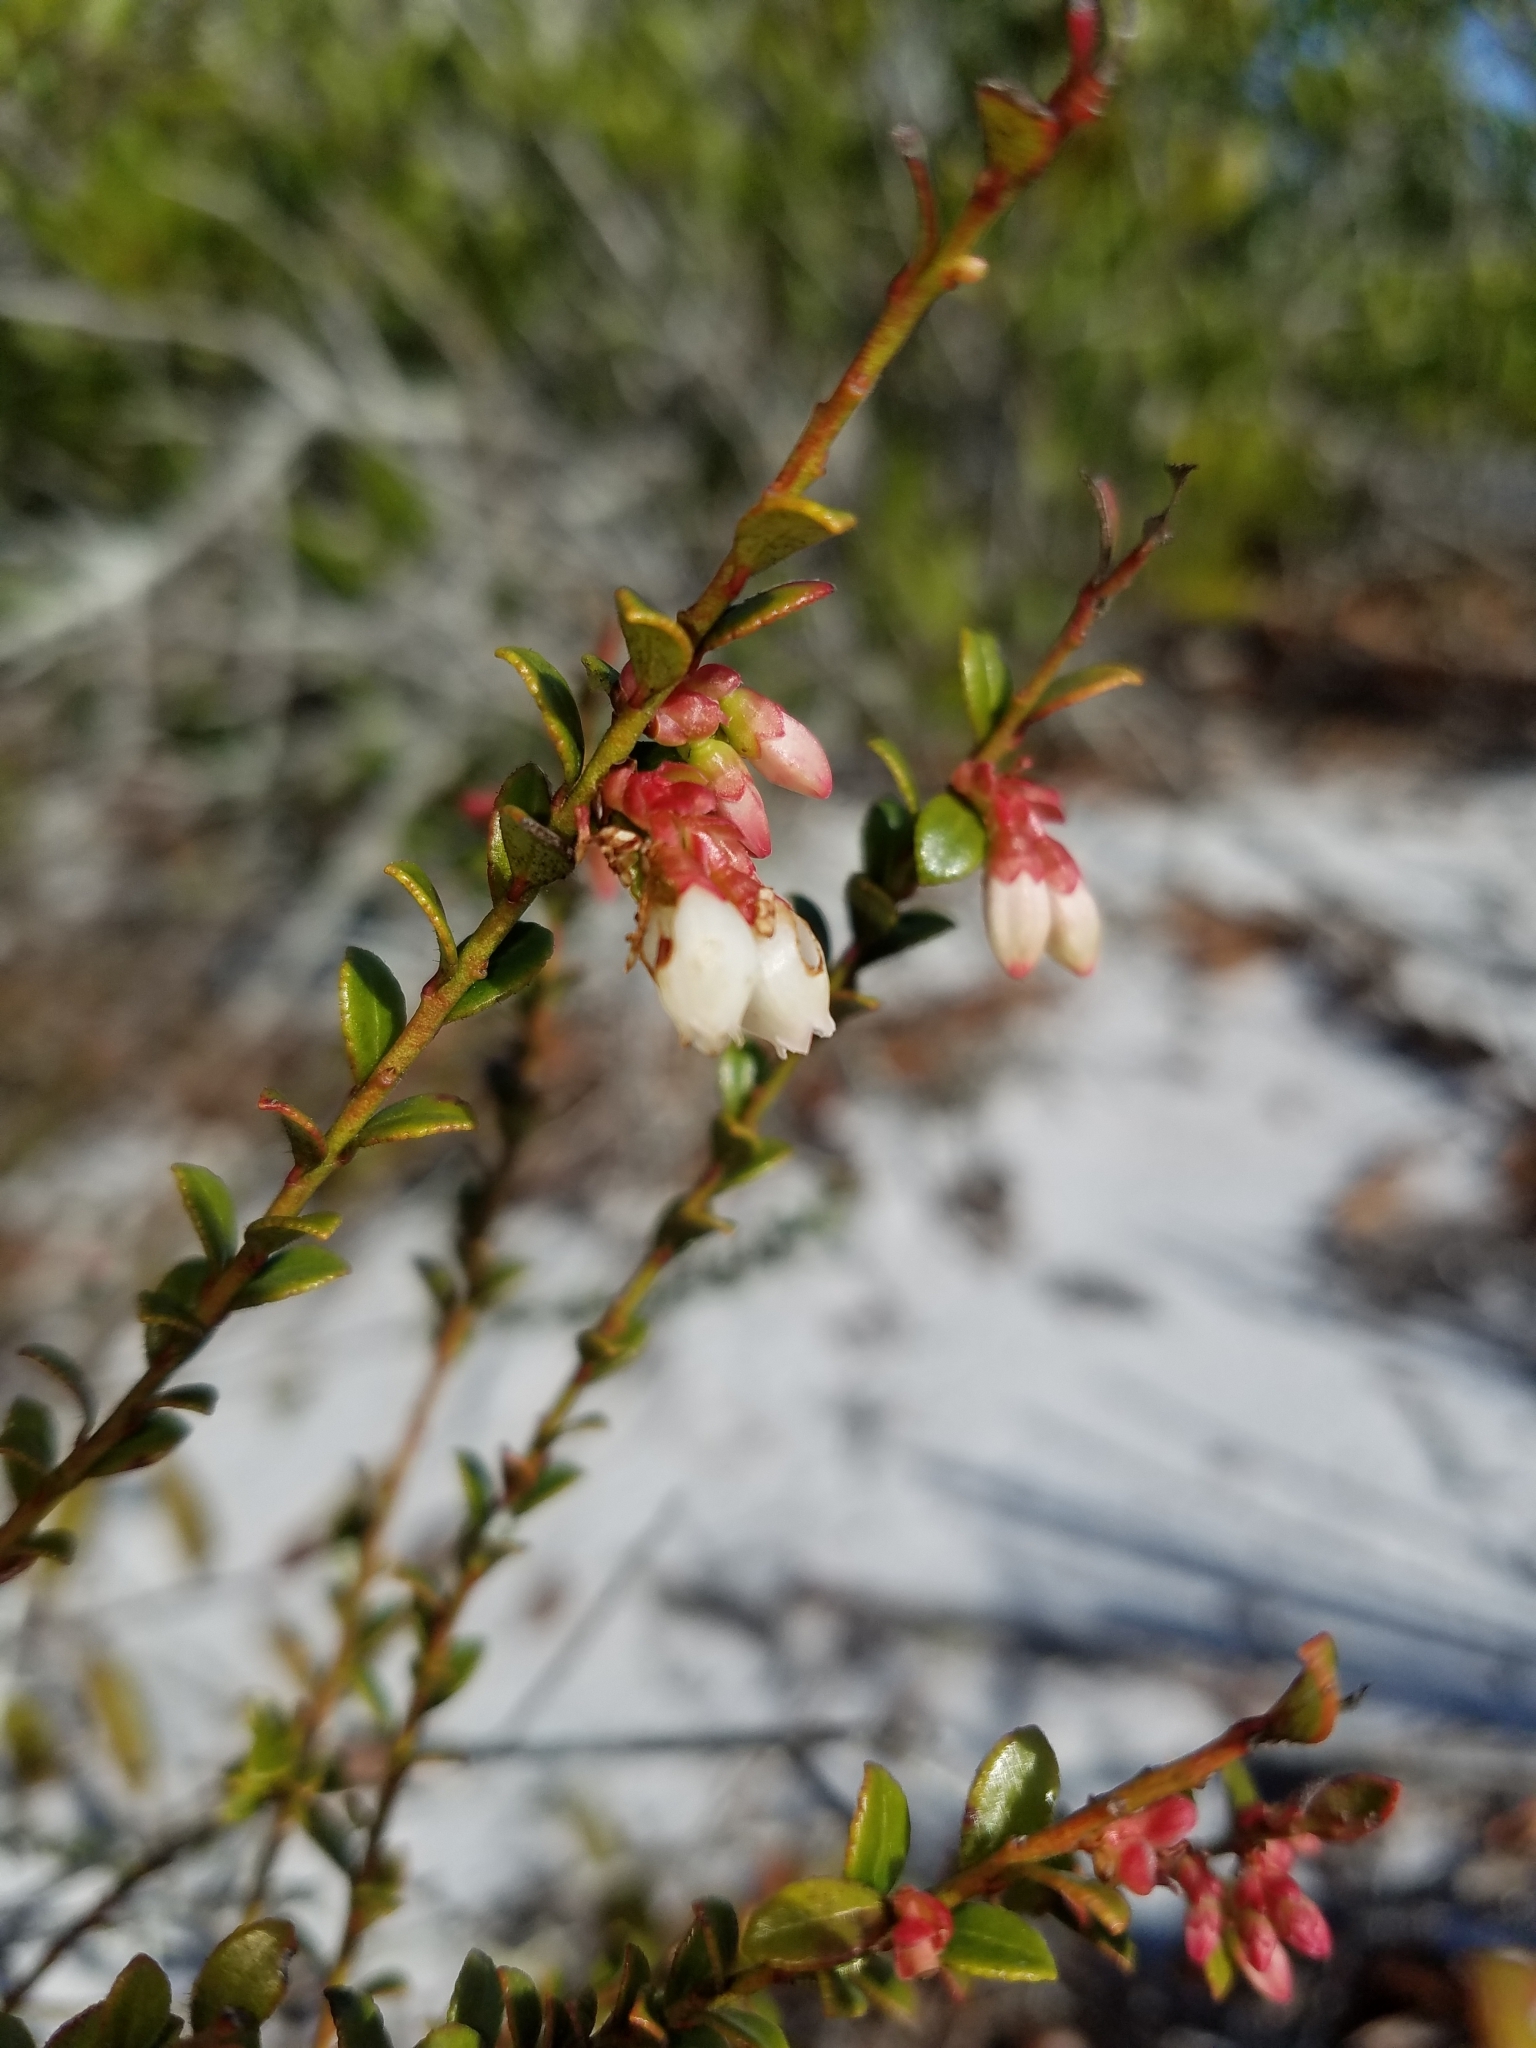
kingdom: Plantae
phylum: Tracheophyta
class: Magnoliopsida
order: Ericales
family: Ericaceae
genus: Vaccinium
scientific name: Vaccinium myrsinites
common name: Evergreen blueberry
